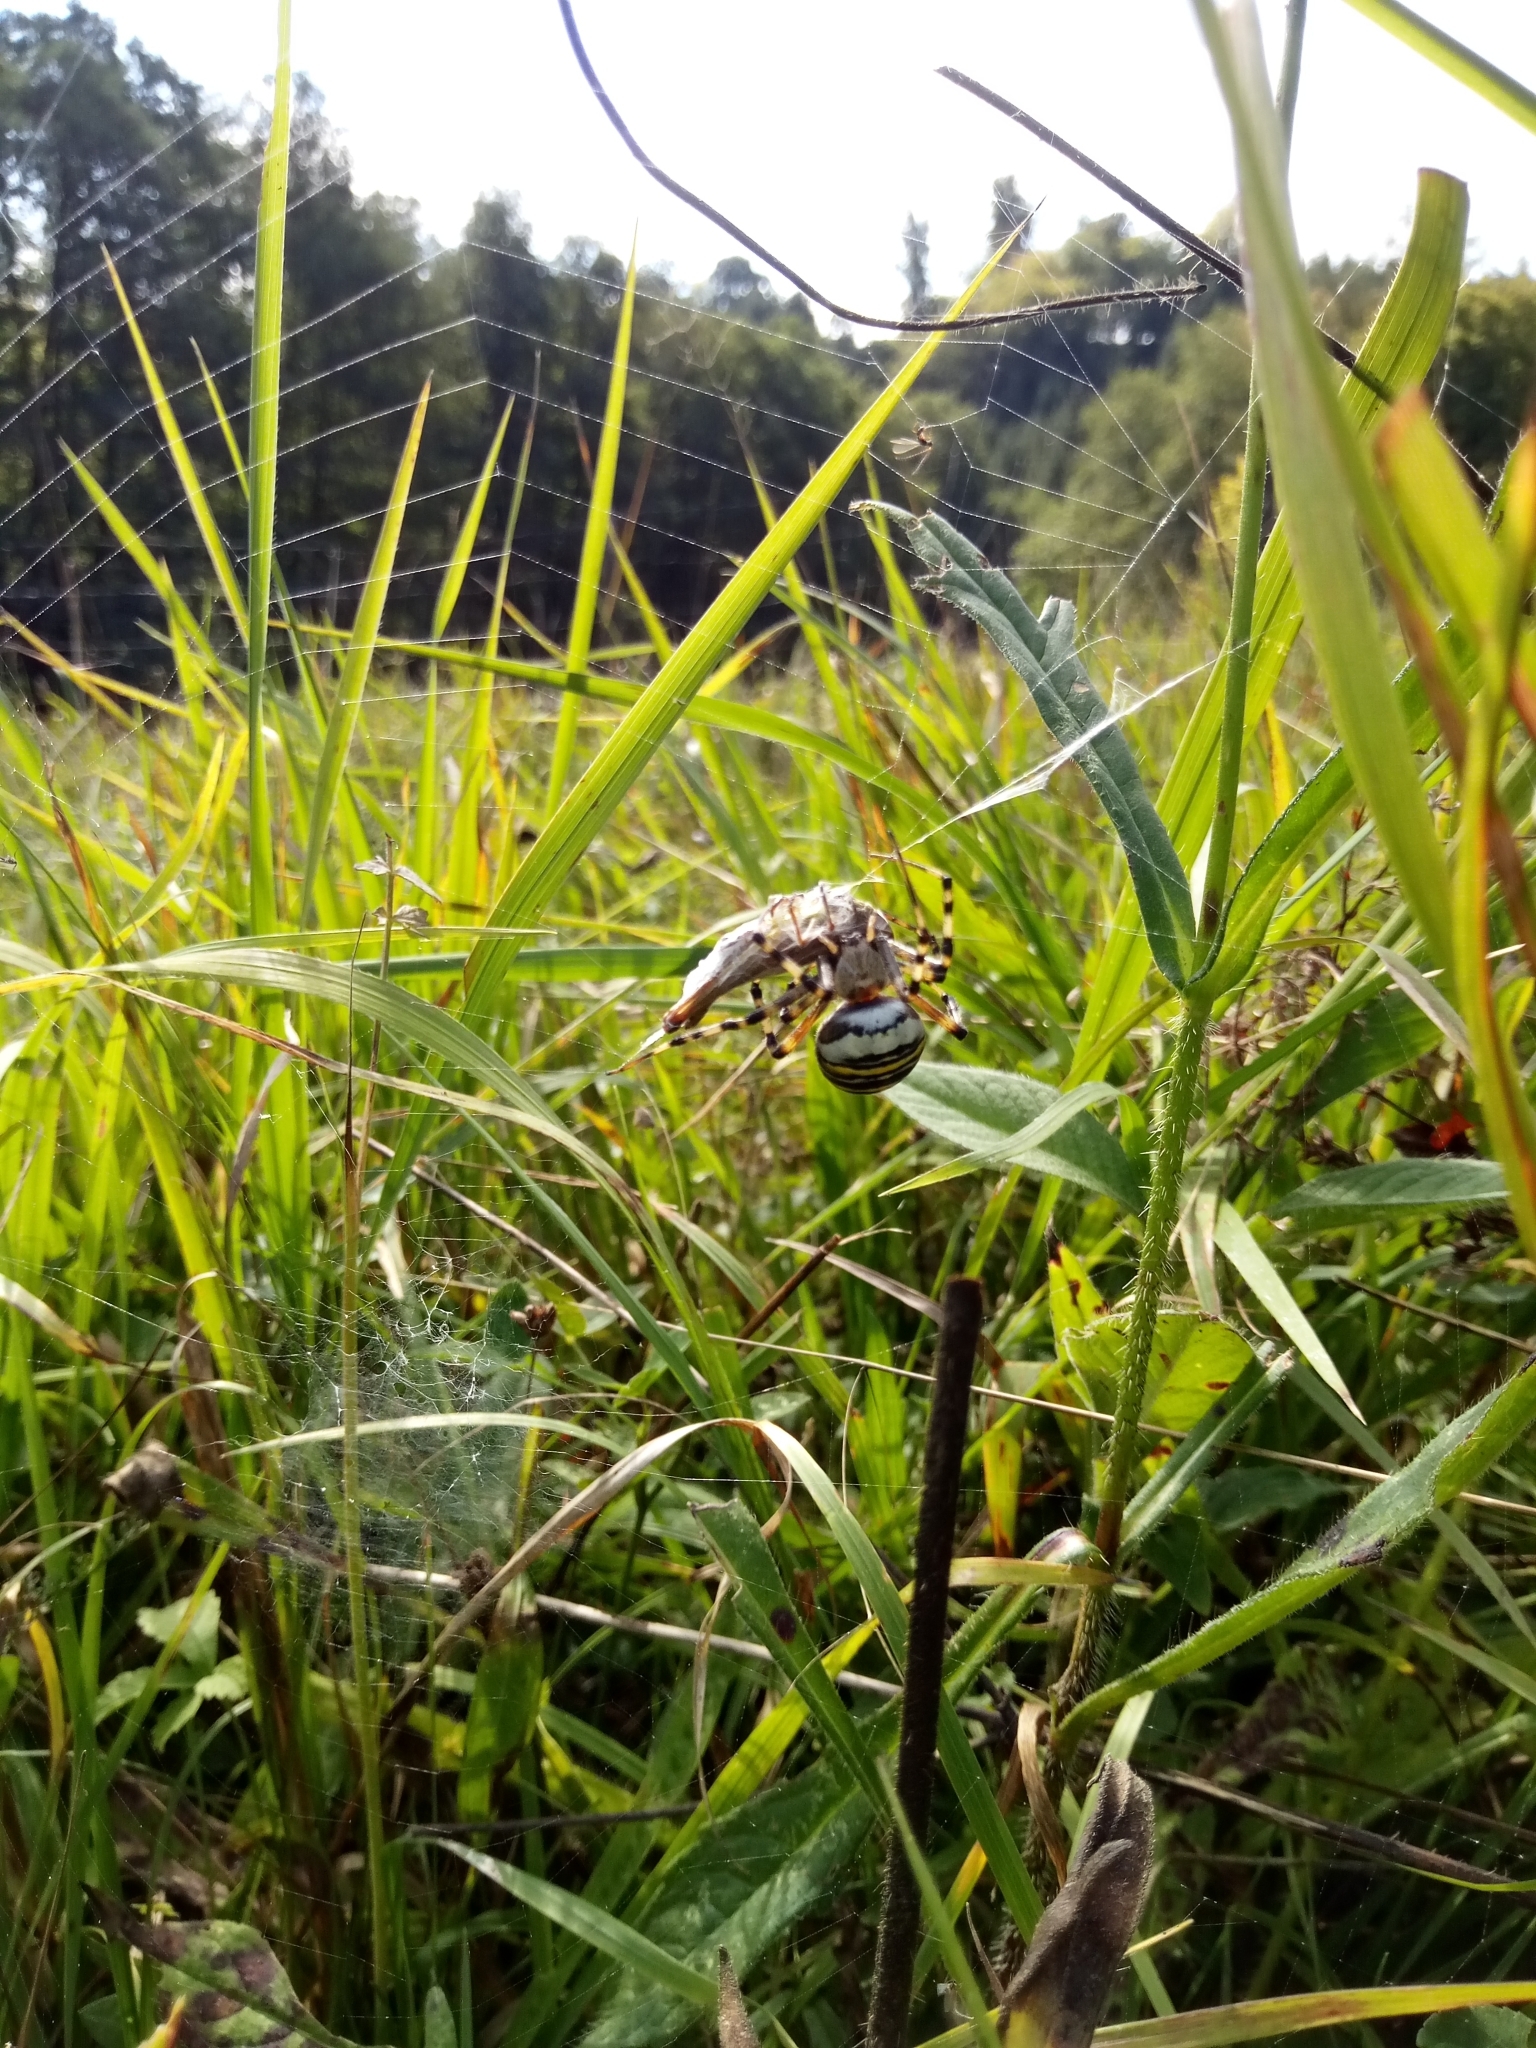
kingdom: Animalia
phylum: Arthropoda
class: Arachnida
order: Araneae
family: Araneidae
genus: Argiope
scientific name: Argiope bruennichi
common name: Wasp spider
